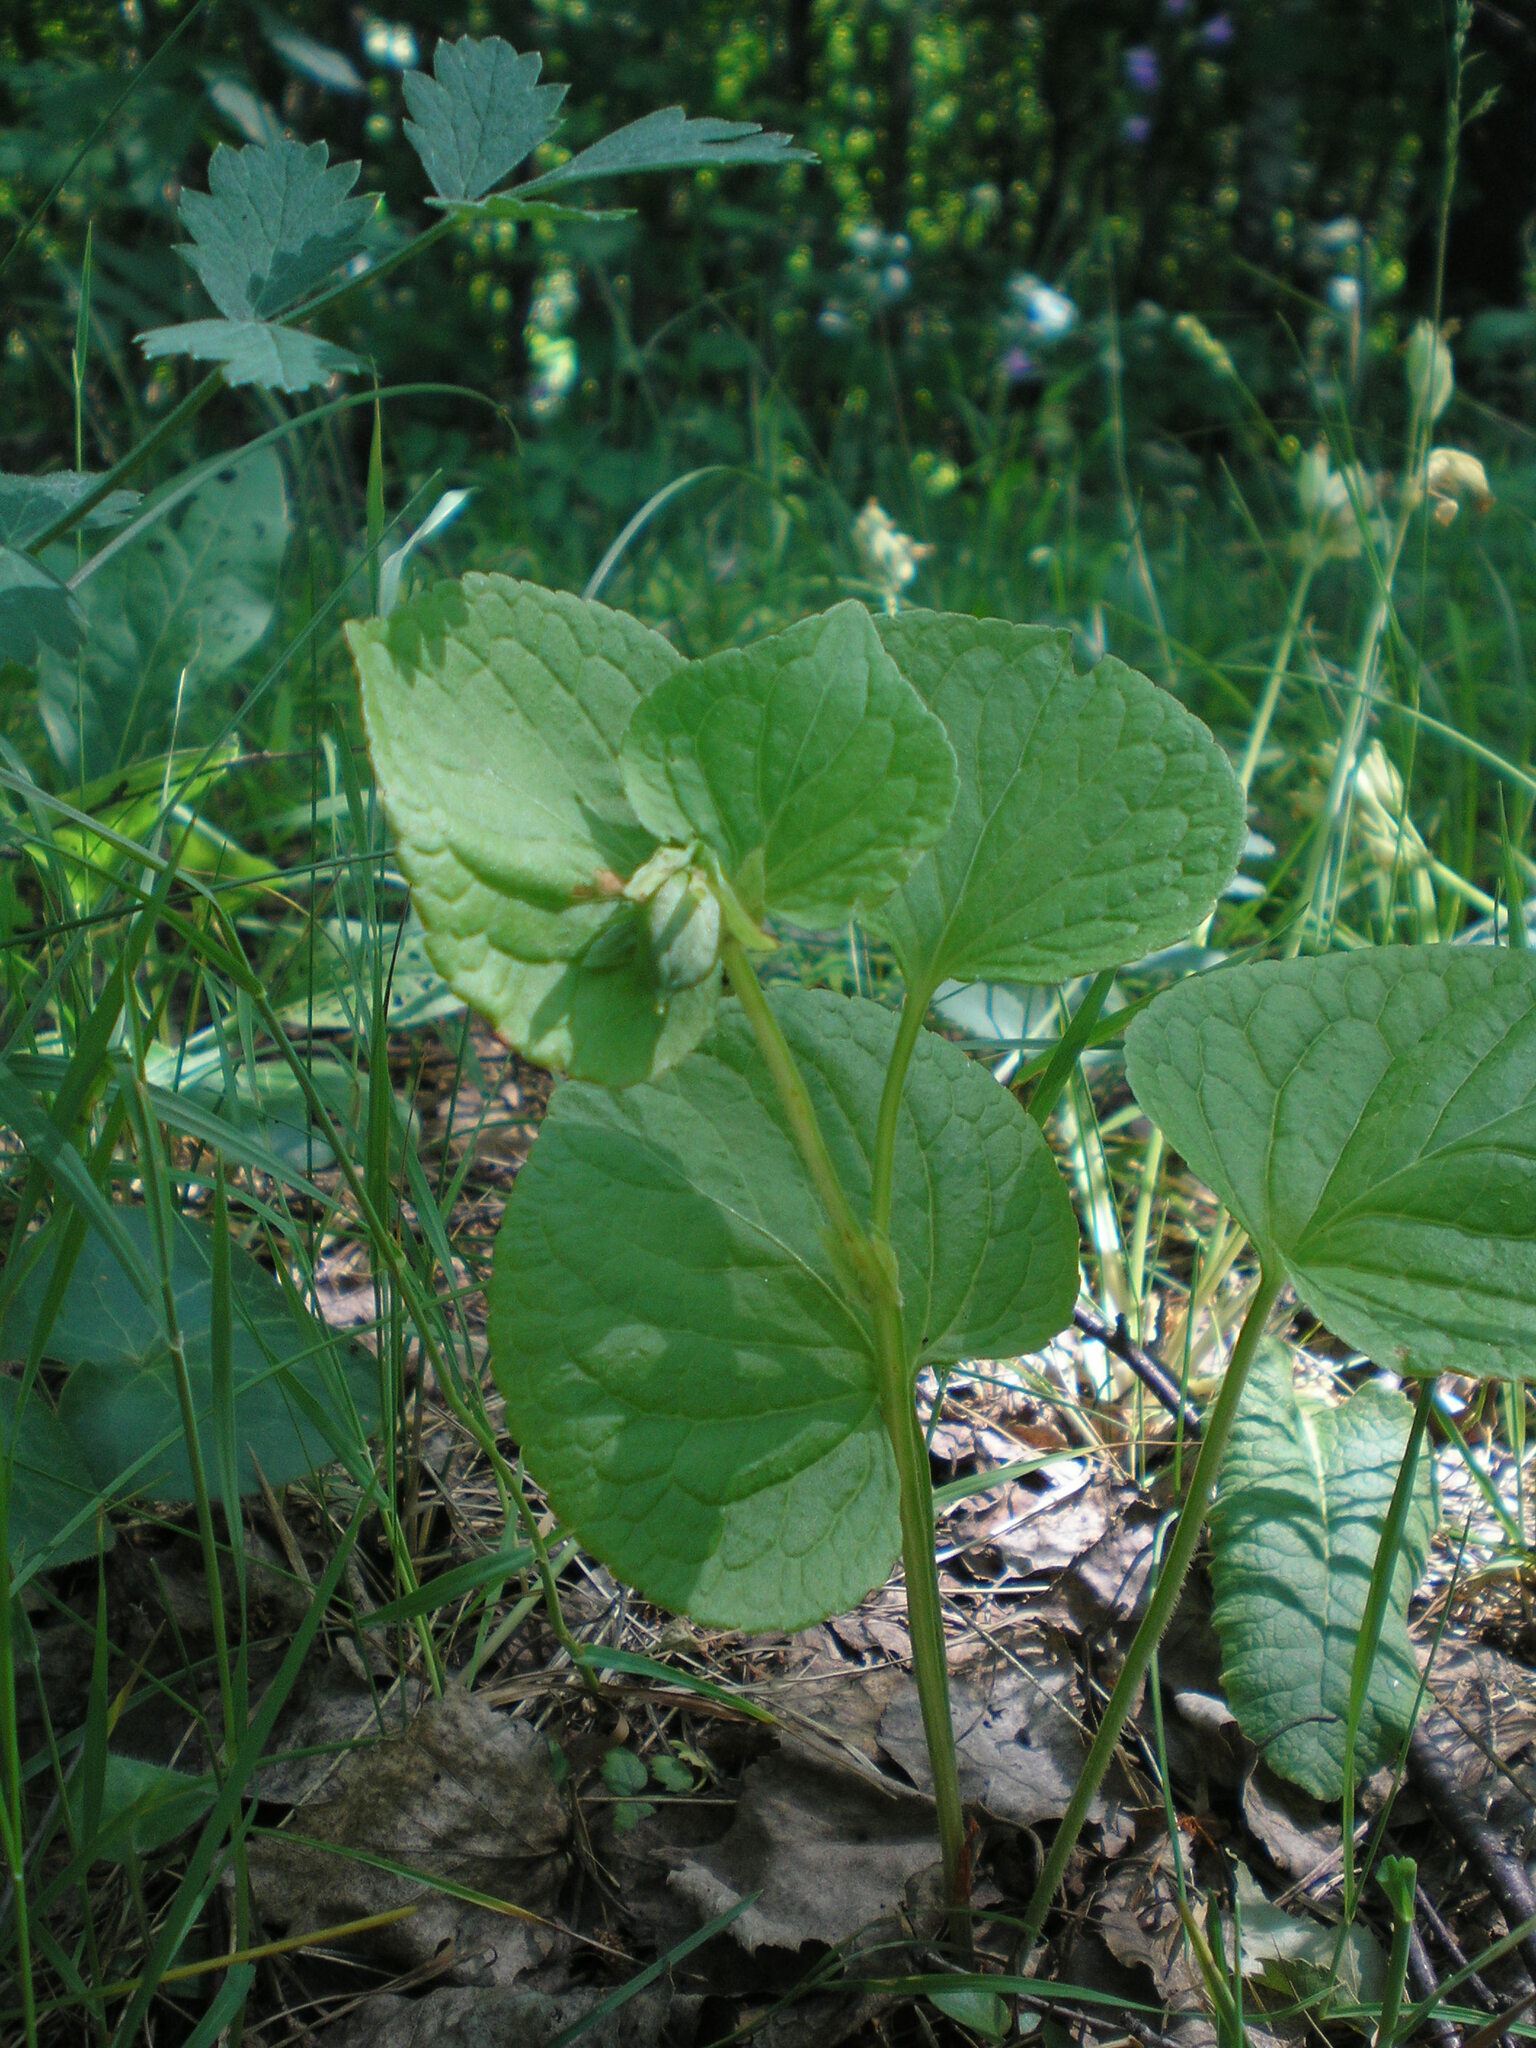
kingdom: Plantae
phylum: Tracheophyta
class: Magnoliopsida
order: Malpighiales
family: Violaceae
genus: Viola
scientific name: Viola mirabilis
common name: Wonder violet
